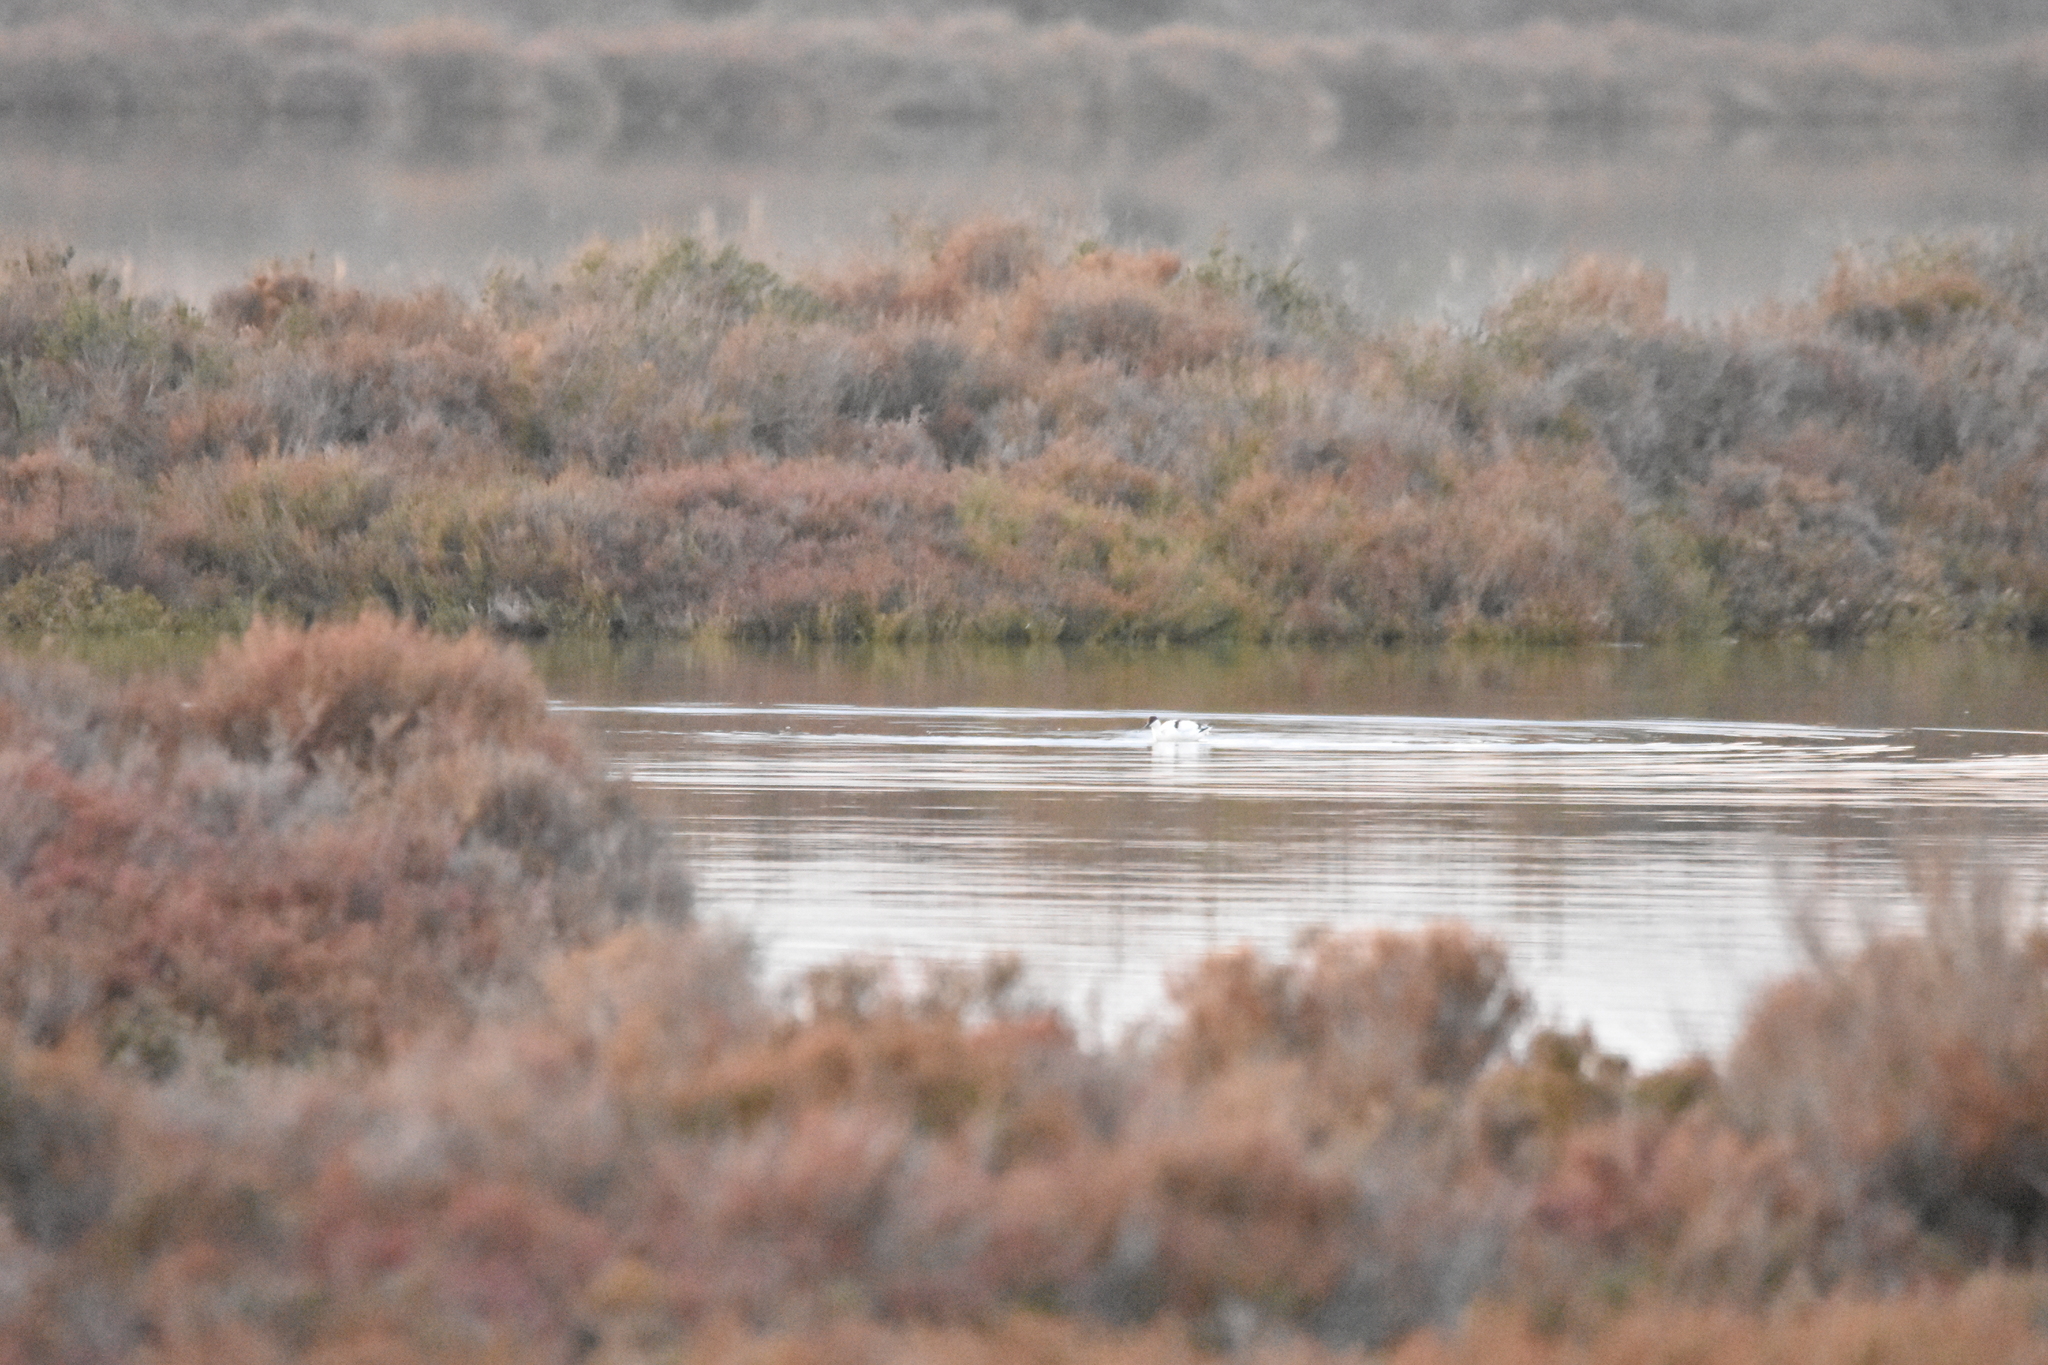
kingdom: Animalia
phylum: Chordata
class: Aves
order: Charadriiformes
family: Recurvirostridae
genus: Recurvirostra
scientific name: Recurvirostra avosetta
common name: Pied avocet
